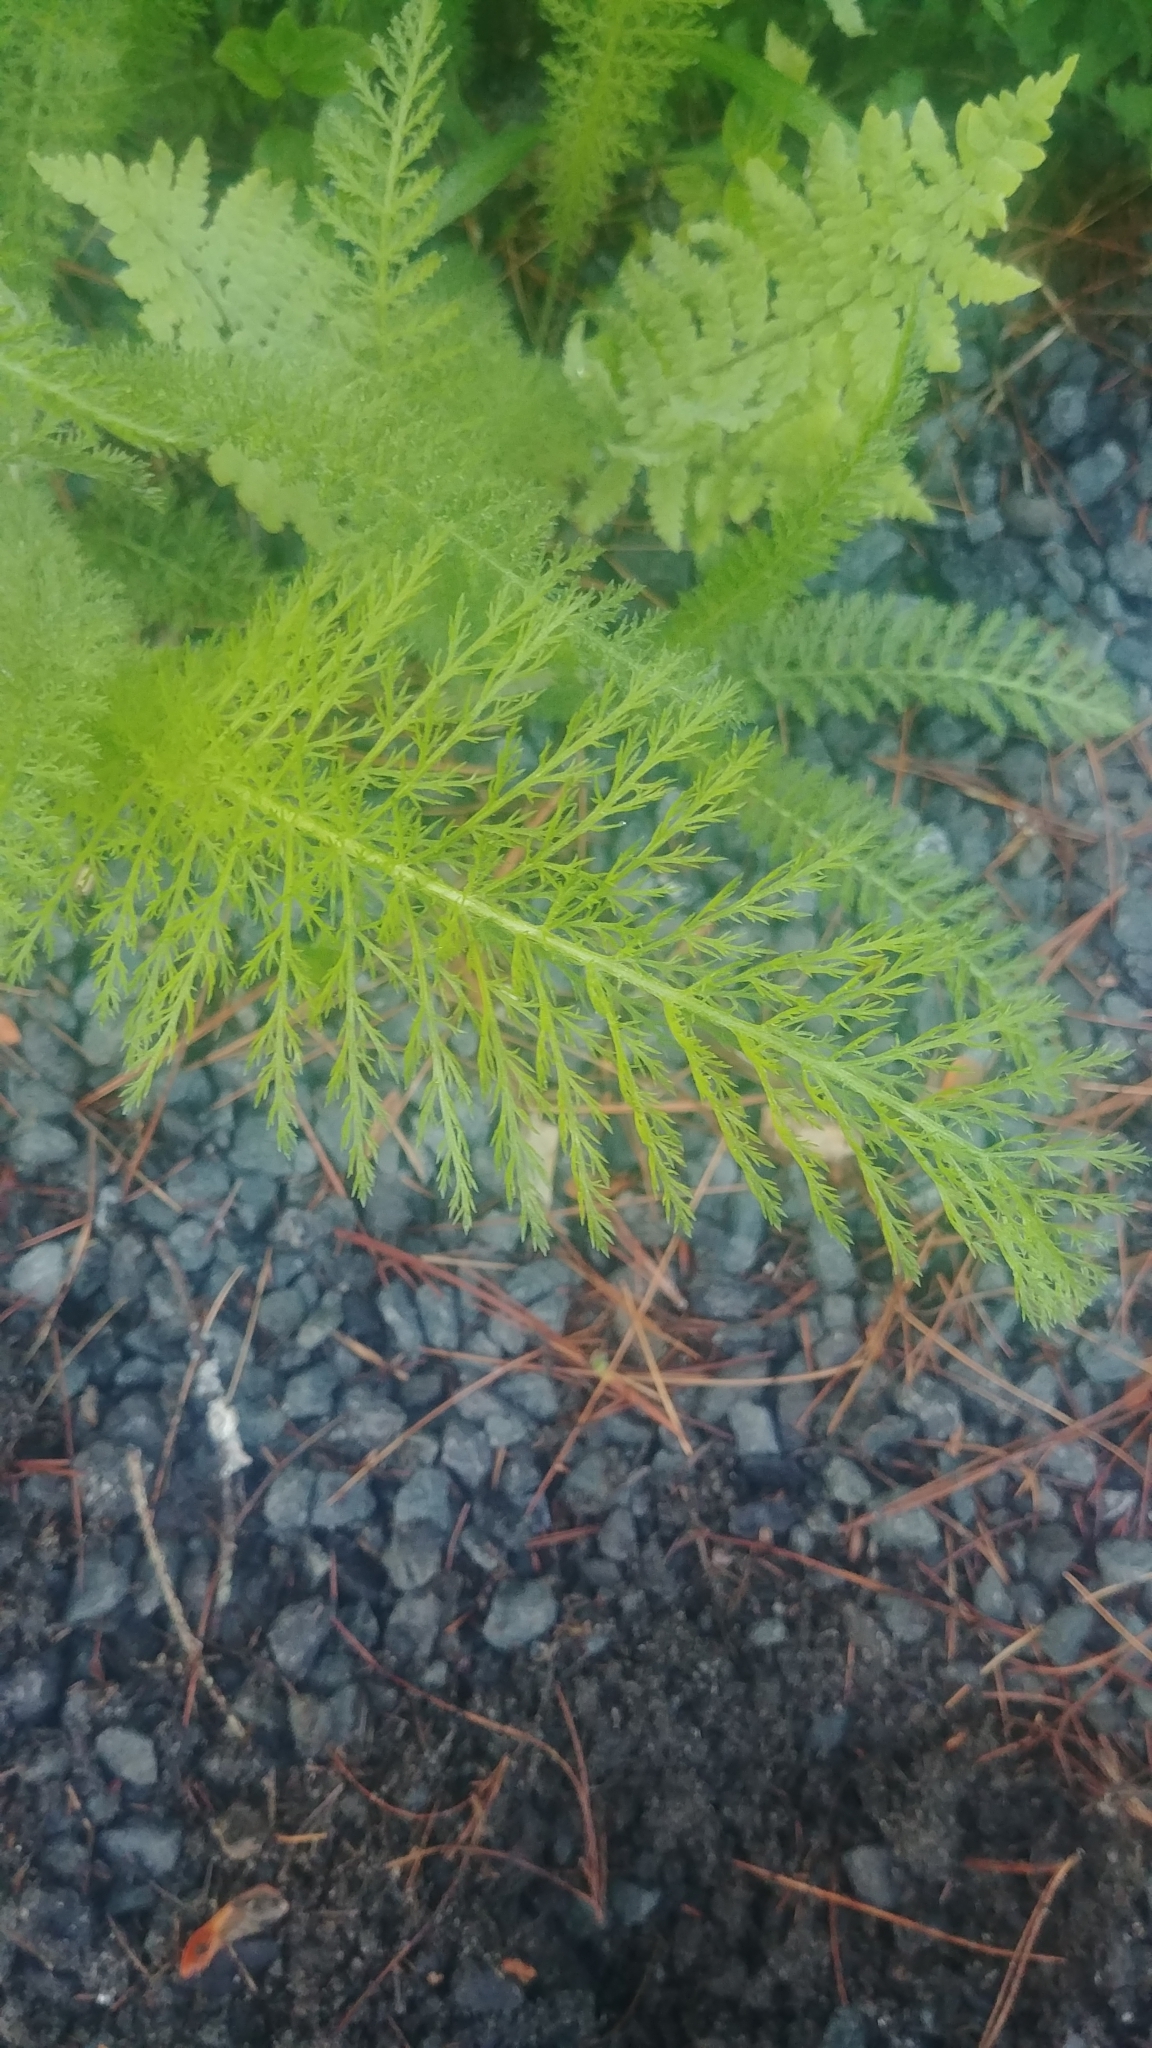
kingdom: Plantae
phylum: Tracheophyta
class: Magnoliopsida
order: Asterales
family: Asteraceae
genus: Achillea
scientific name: Achillea millefolium
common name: Yarrow
